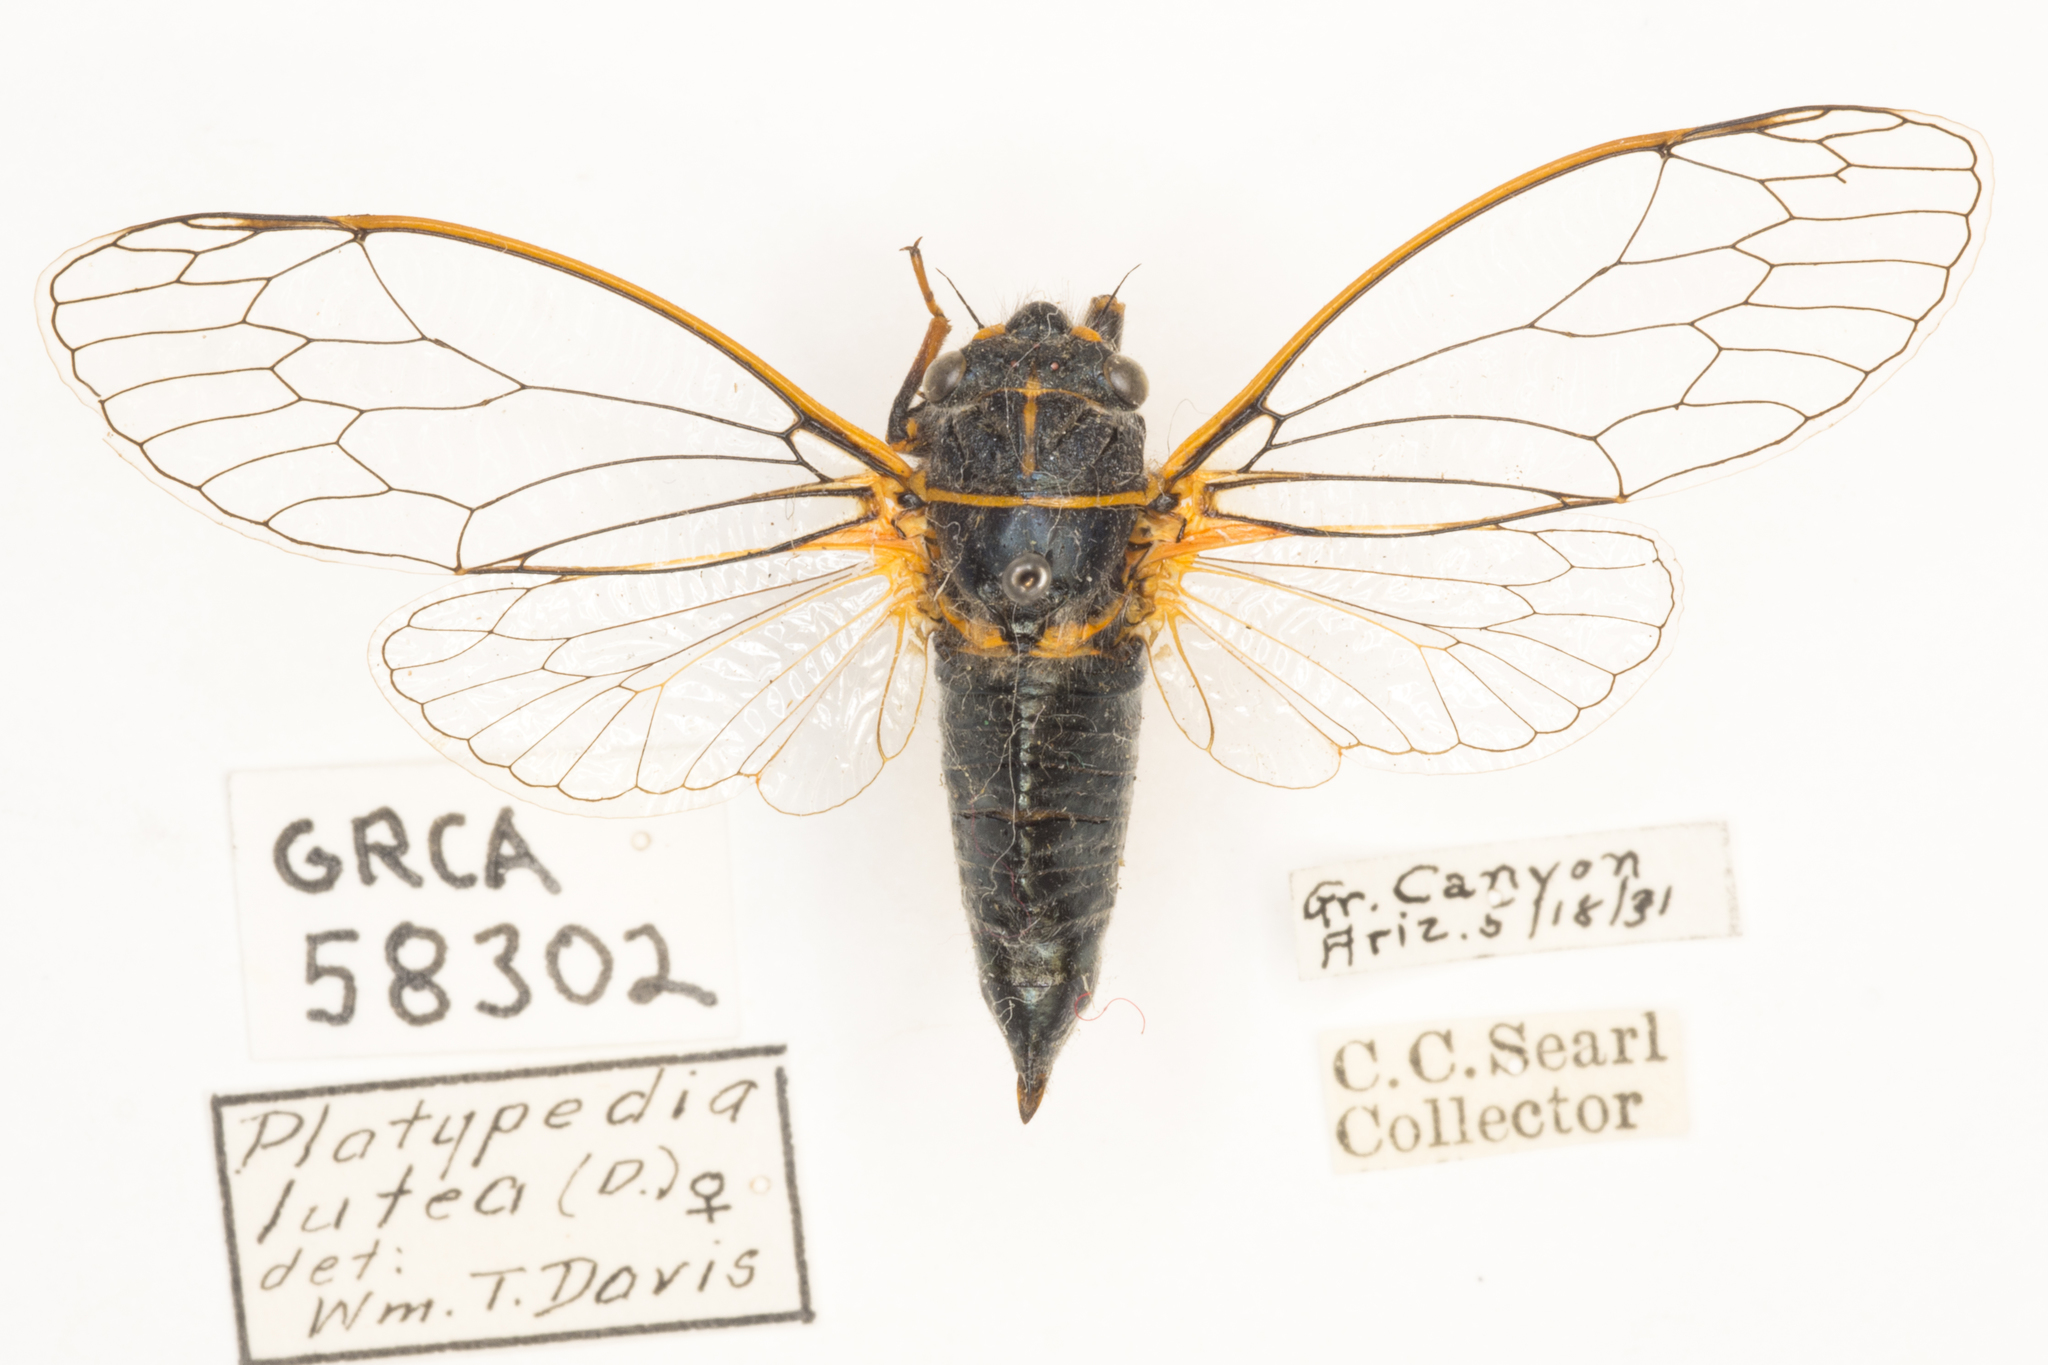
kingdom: Animalia
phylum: Arthropoda
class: Insecta
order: Hemiptera
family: Cicadidae
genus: Platypedia
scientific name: Platypedia putnami
